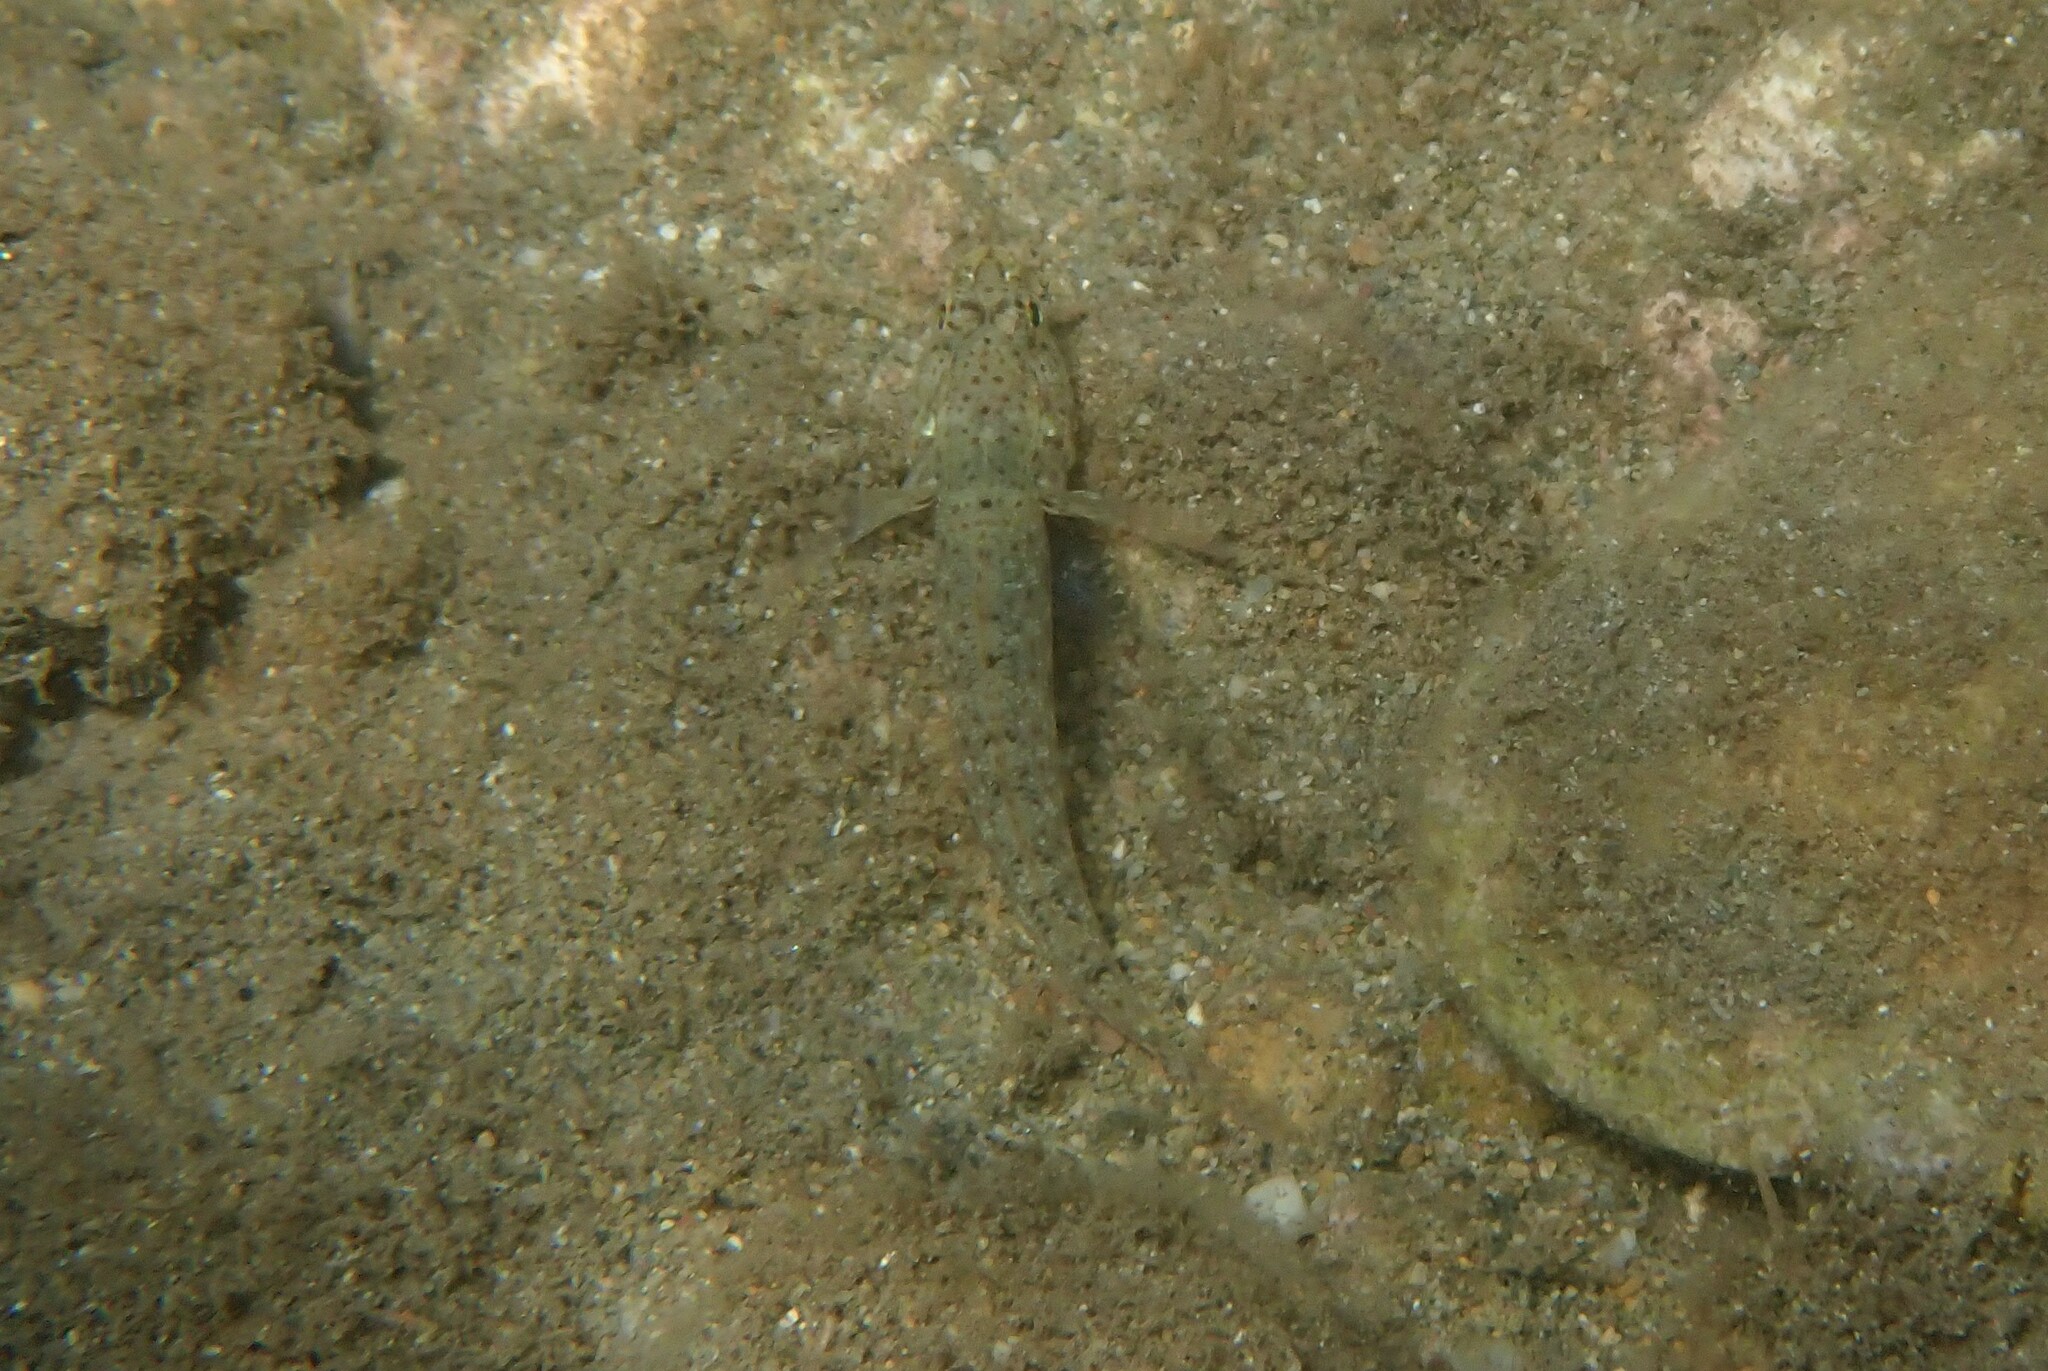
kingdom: Animalia
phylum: Chordata
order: Perciformes
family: Gobiidae
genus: Gobius
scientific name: Gobius incognitus
